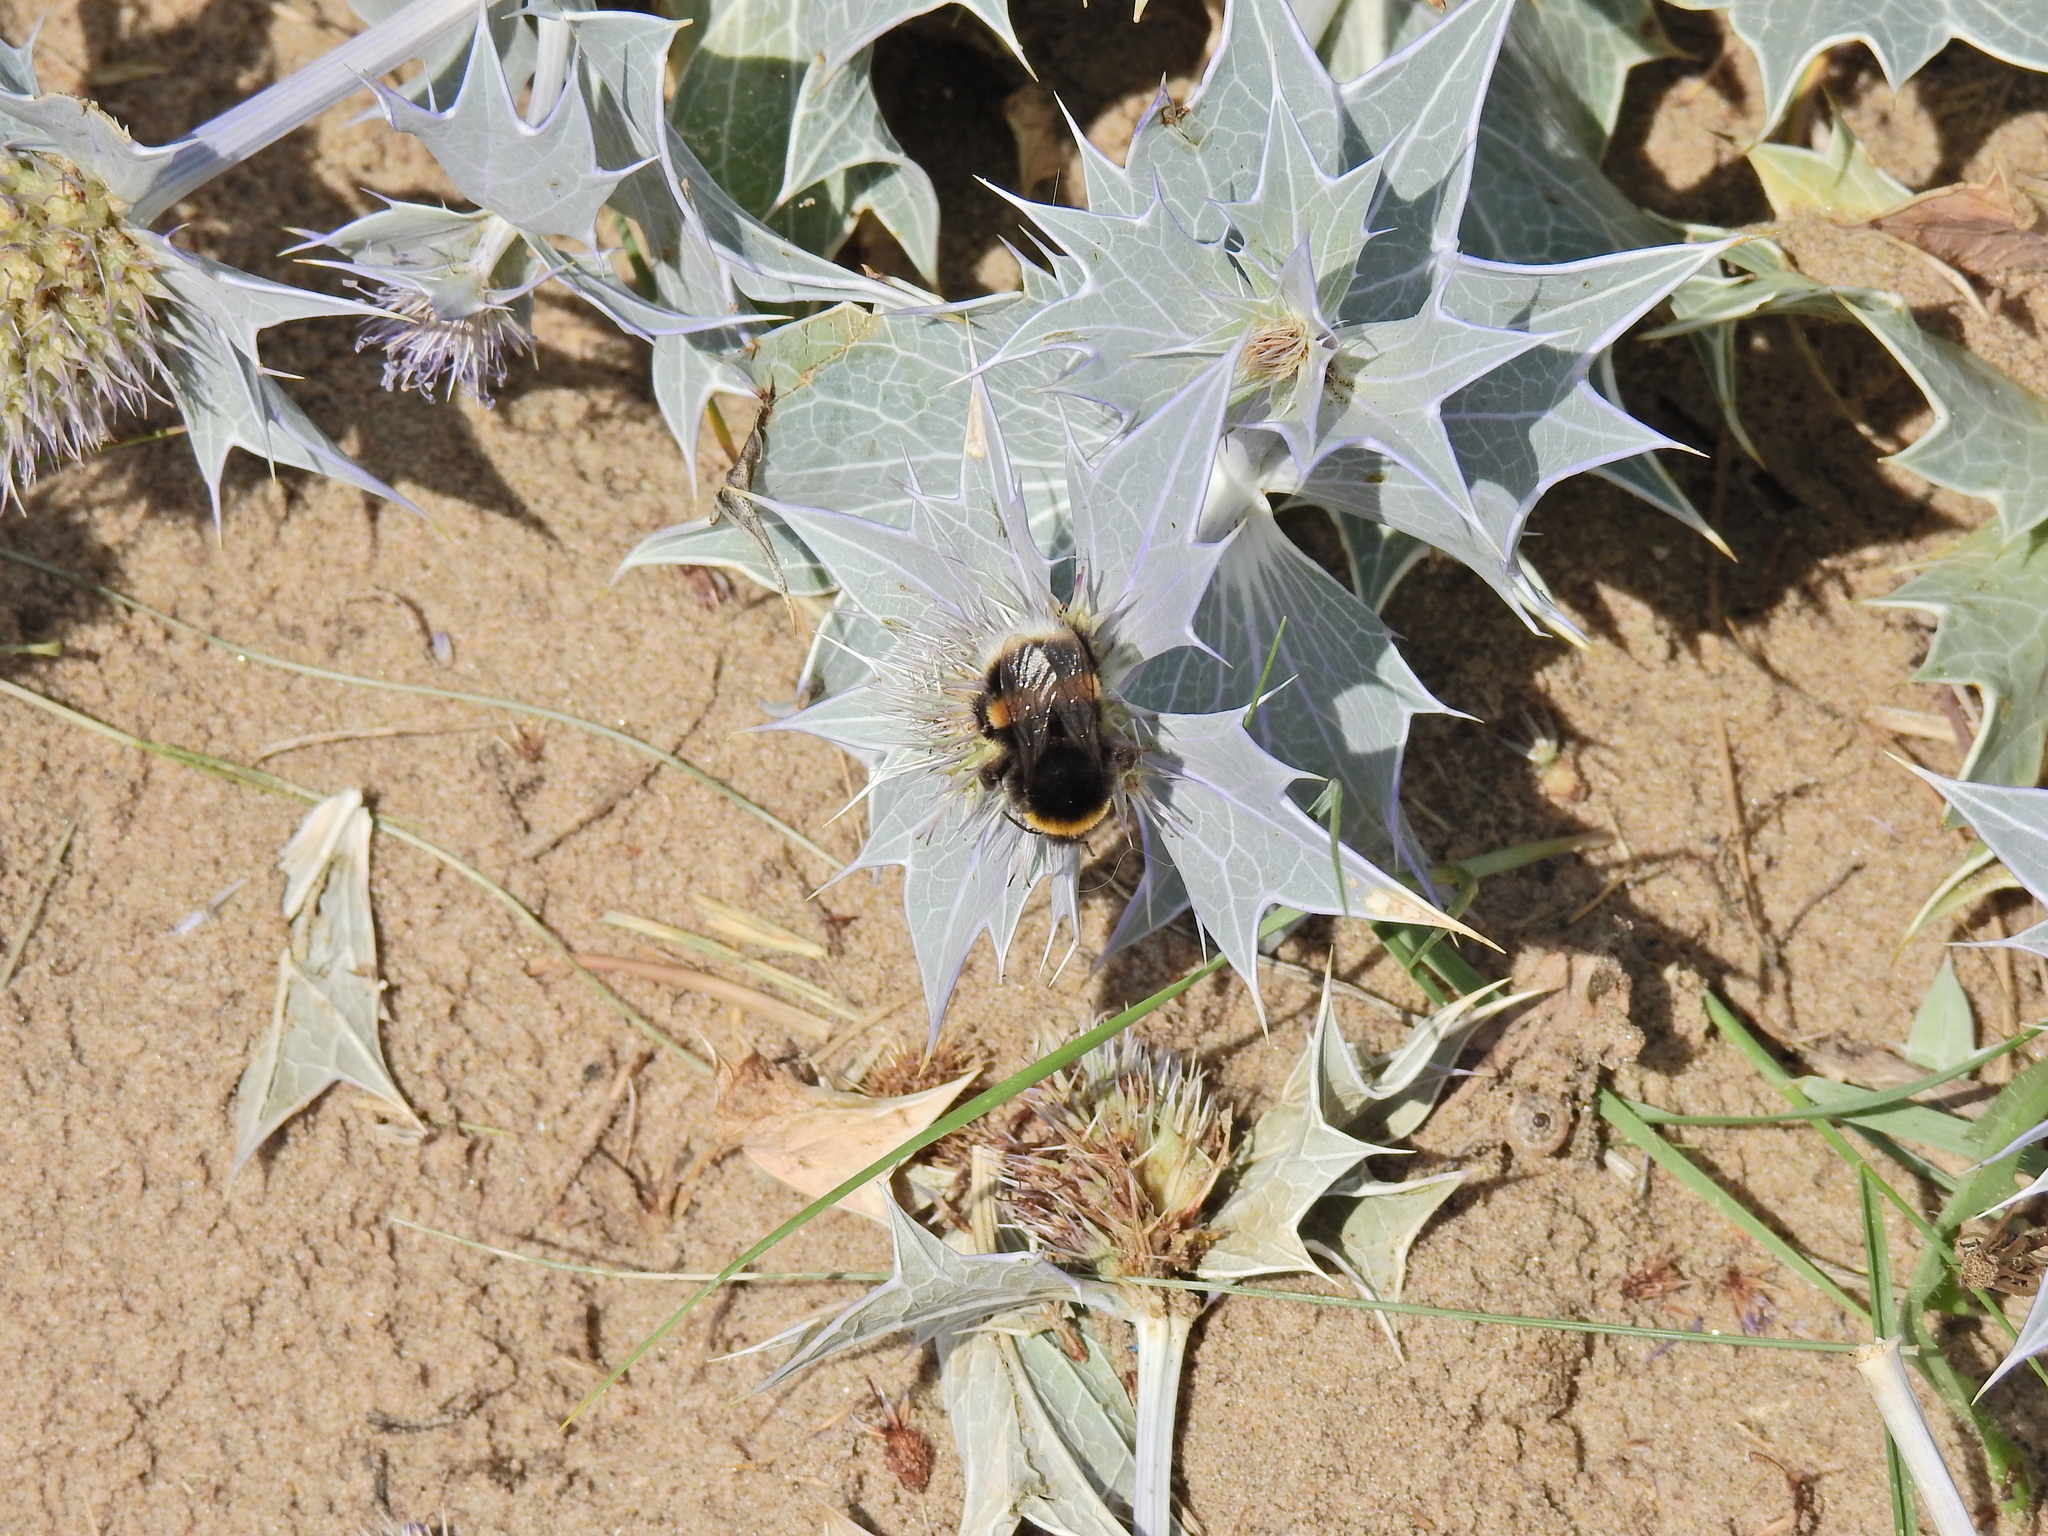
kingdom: Animalia
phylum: Arthropoda
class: Insecta
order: Hymenoptera
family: Apidae
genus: Bombus
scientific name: Bombus terrestris
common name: Buff-tailed bumblebee
